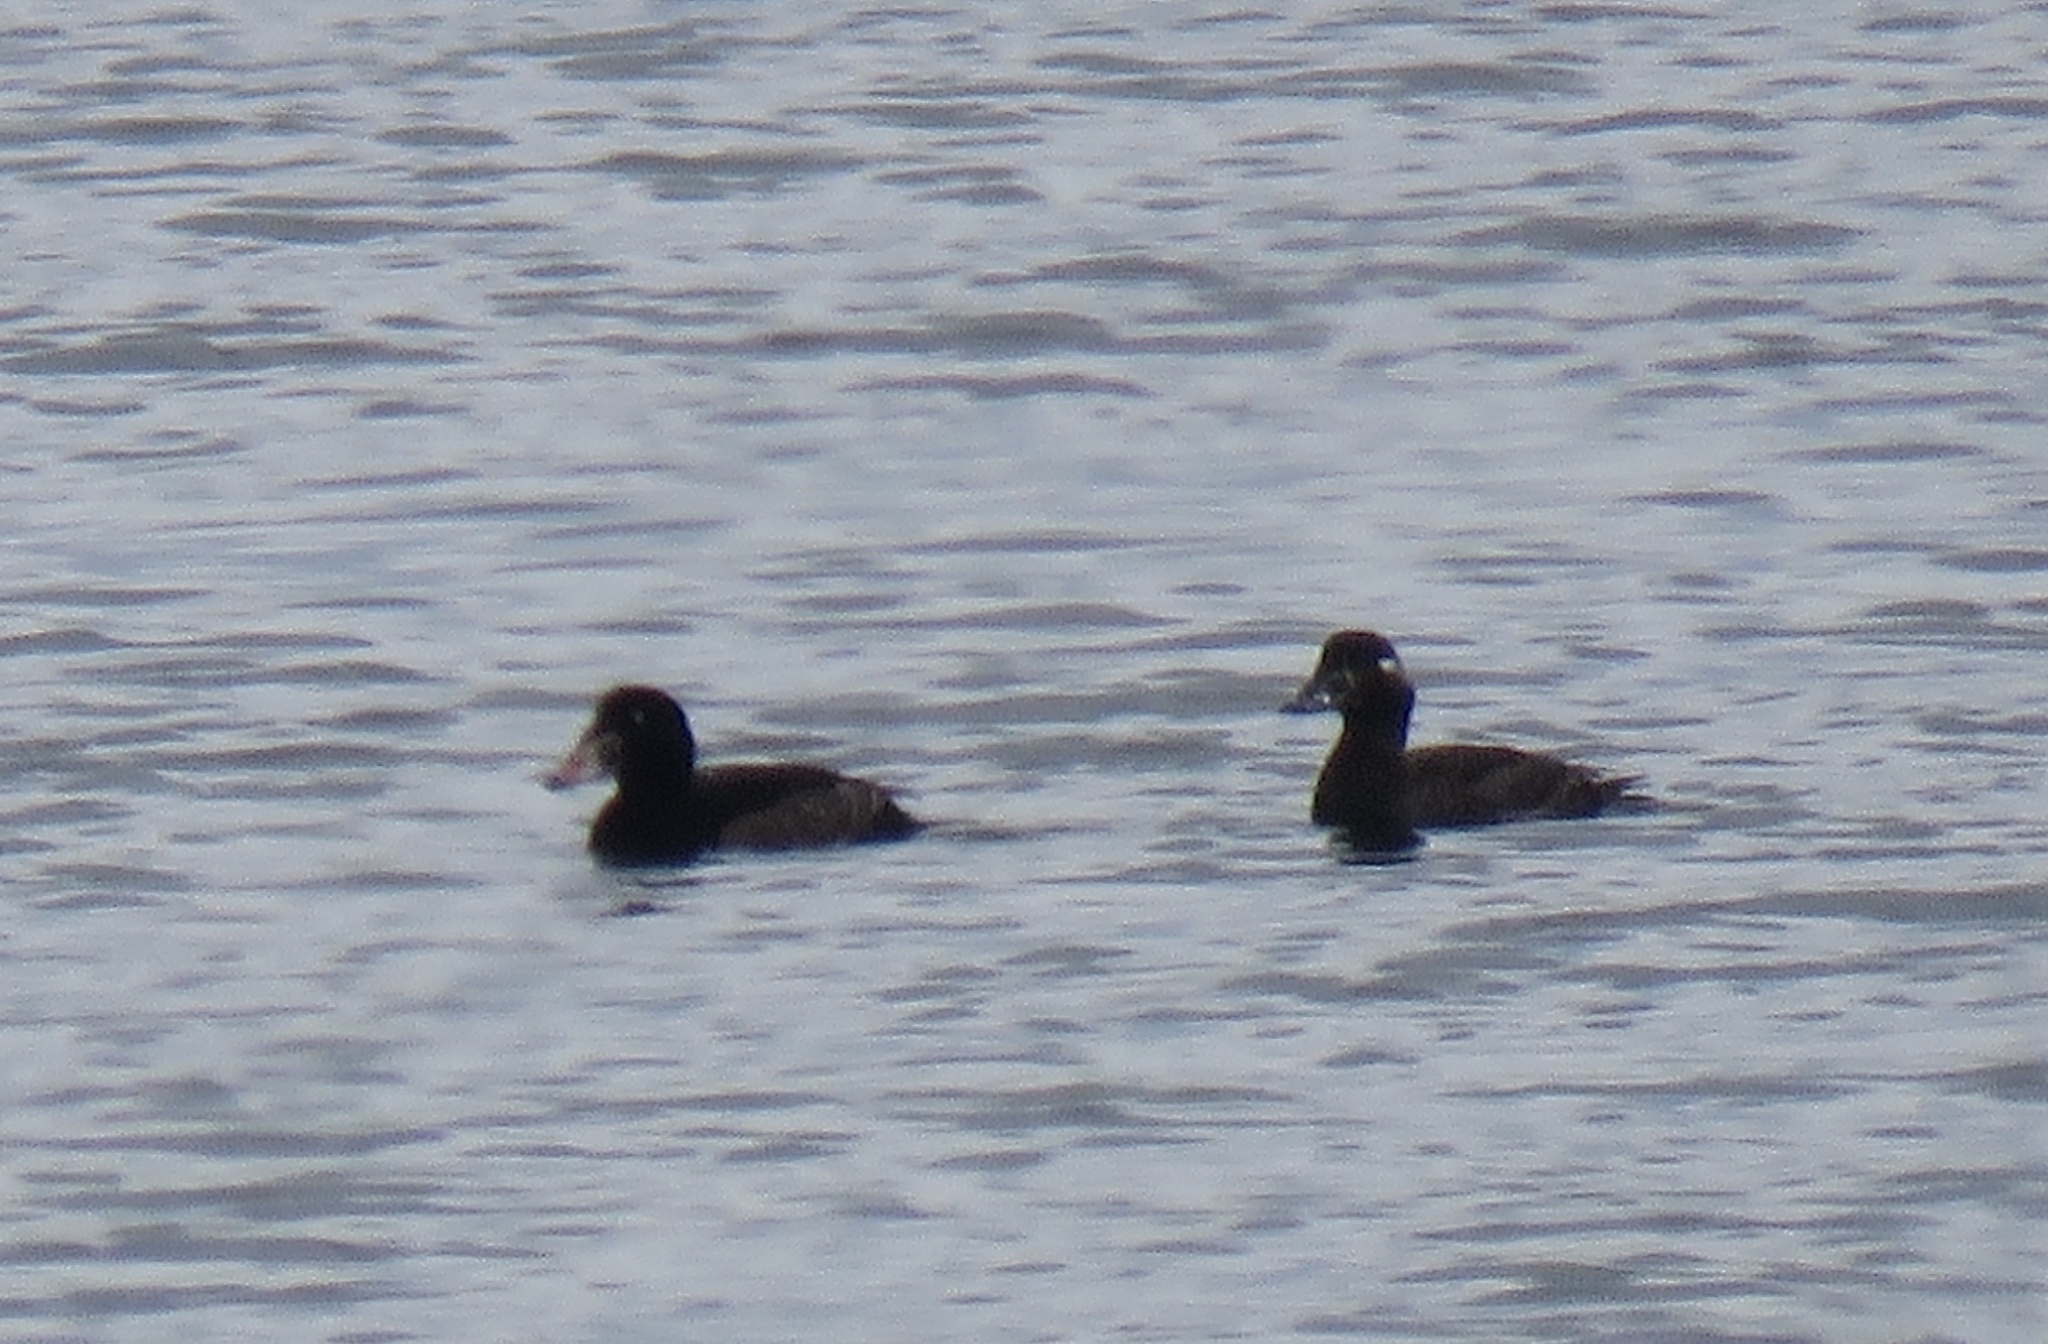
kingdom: Animalia
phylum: Chordata
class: Aves
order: Anseriformes
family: Anatidae
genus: Melanitta
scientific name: Melanitta perspicillata
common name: Surf scoter
